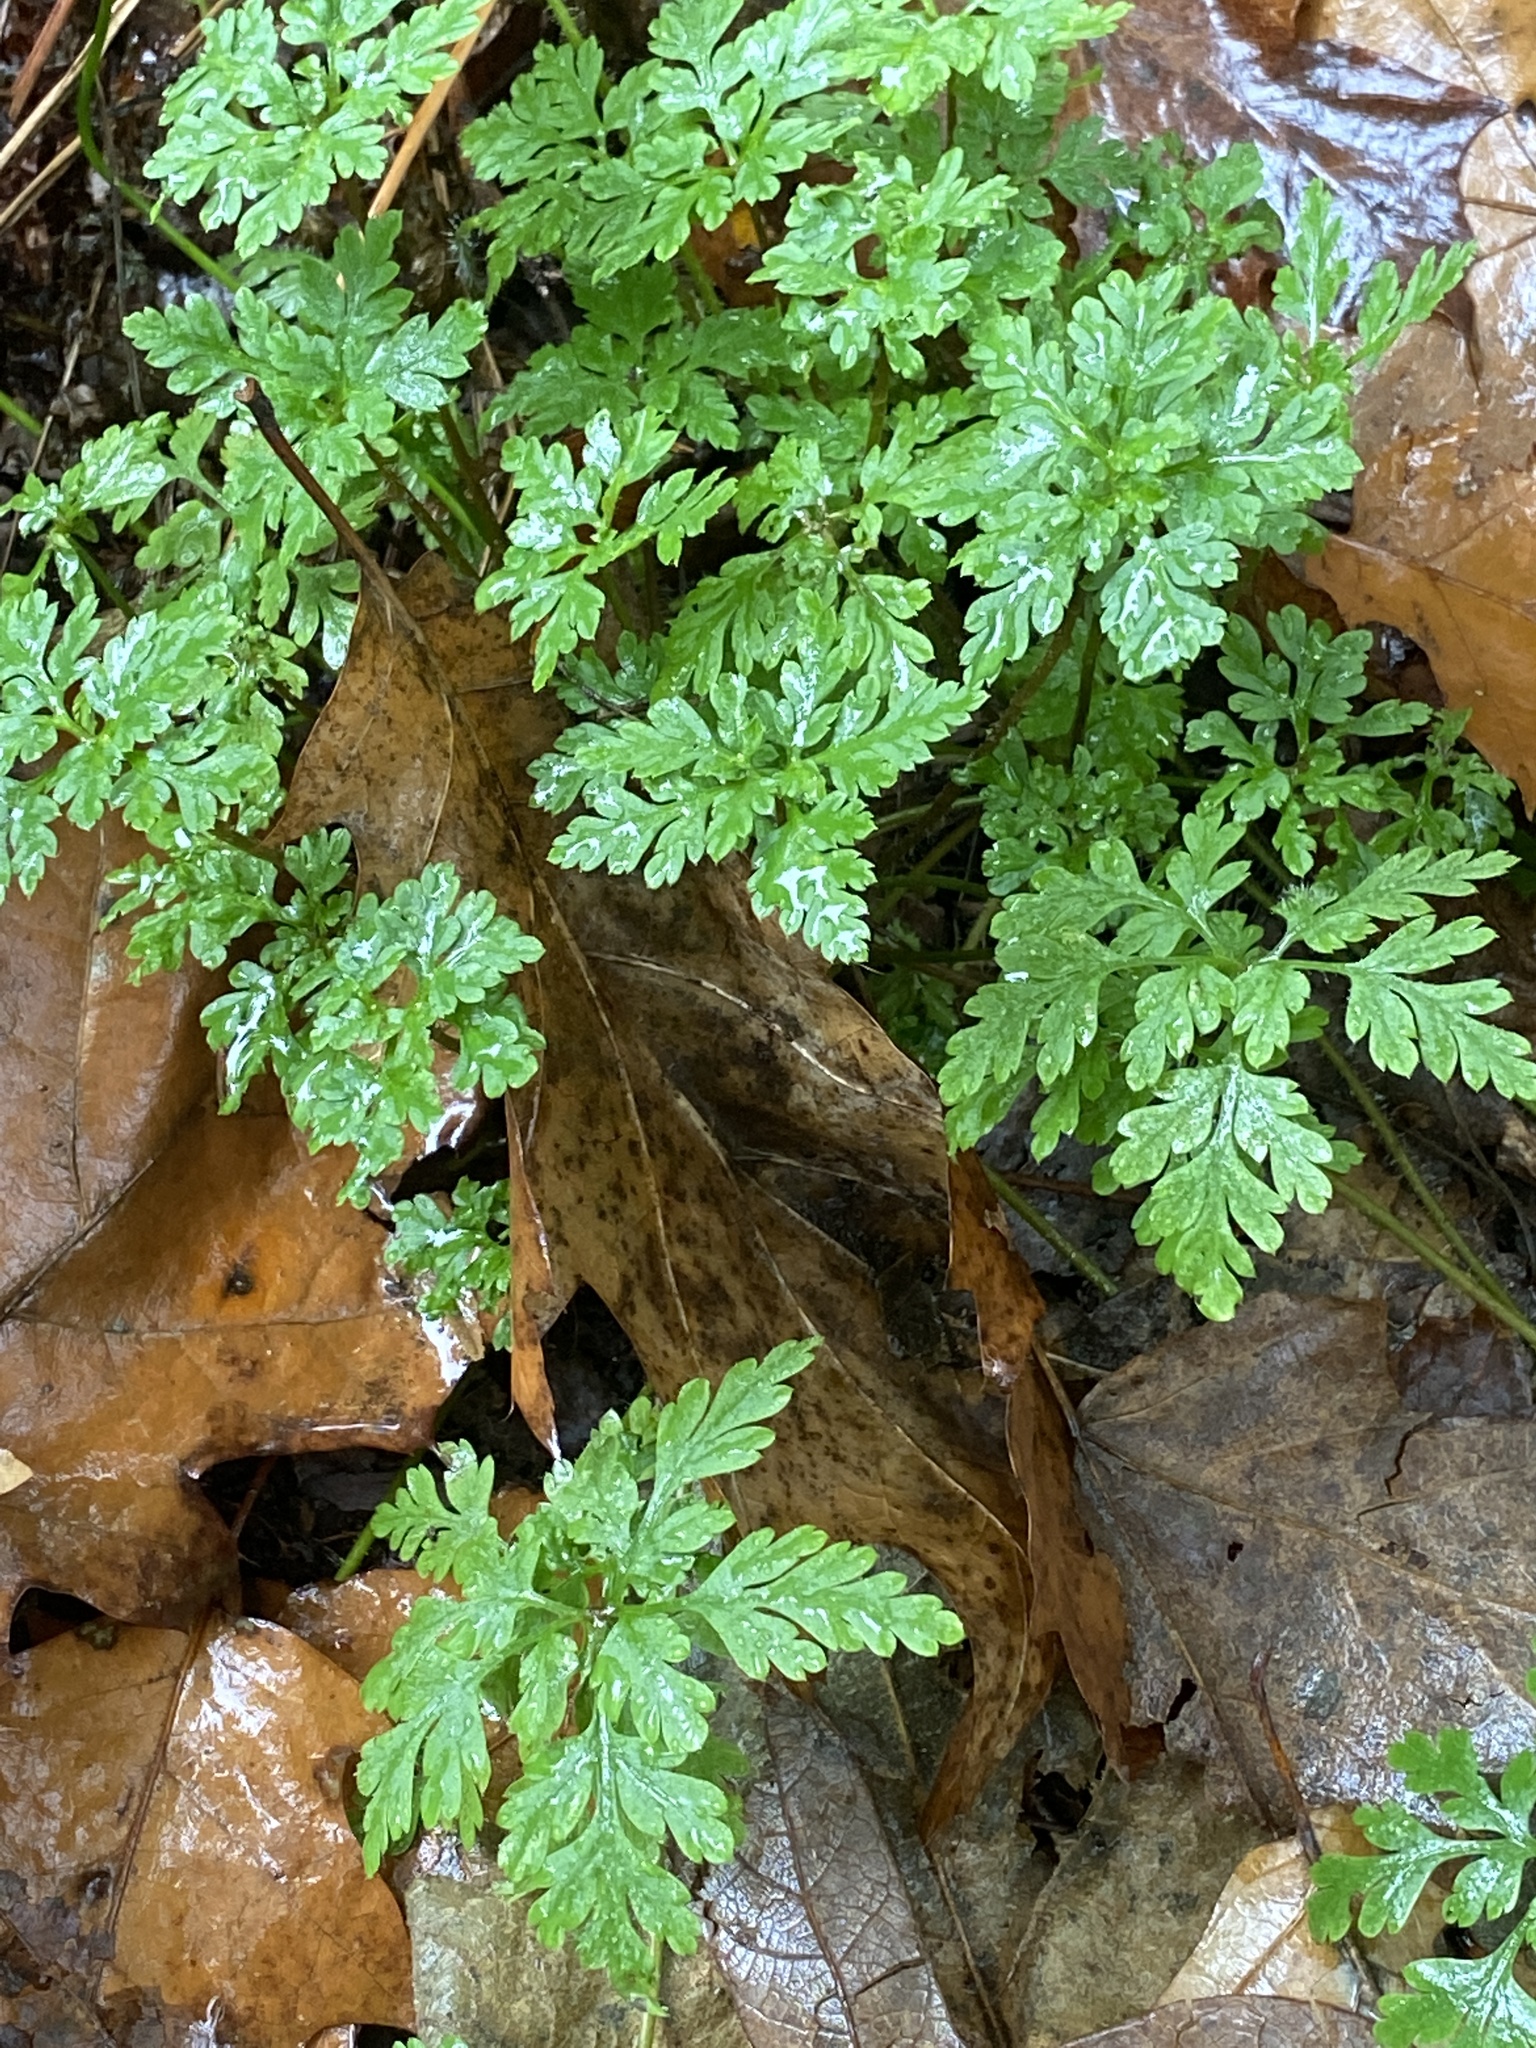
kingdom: Plantae
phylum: Tracheophyta
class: Magnoliopsida
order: Geraniales
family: Geraniaceae
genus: Geranium
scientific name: Geranium robertianum
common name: Herb-robert
